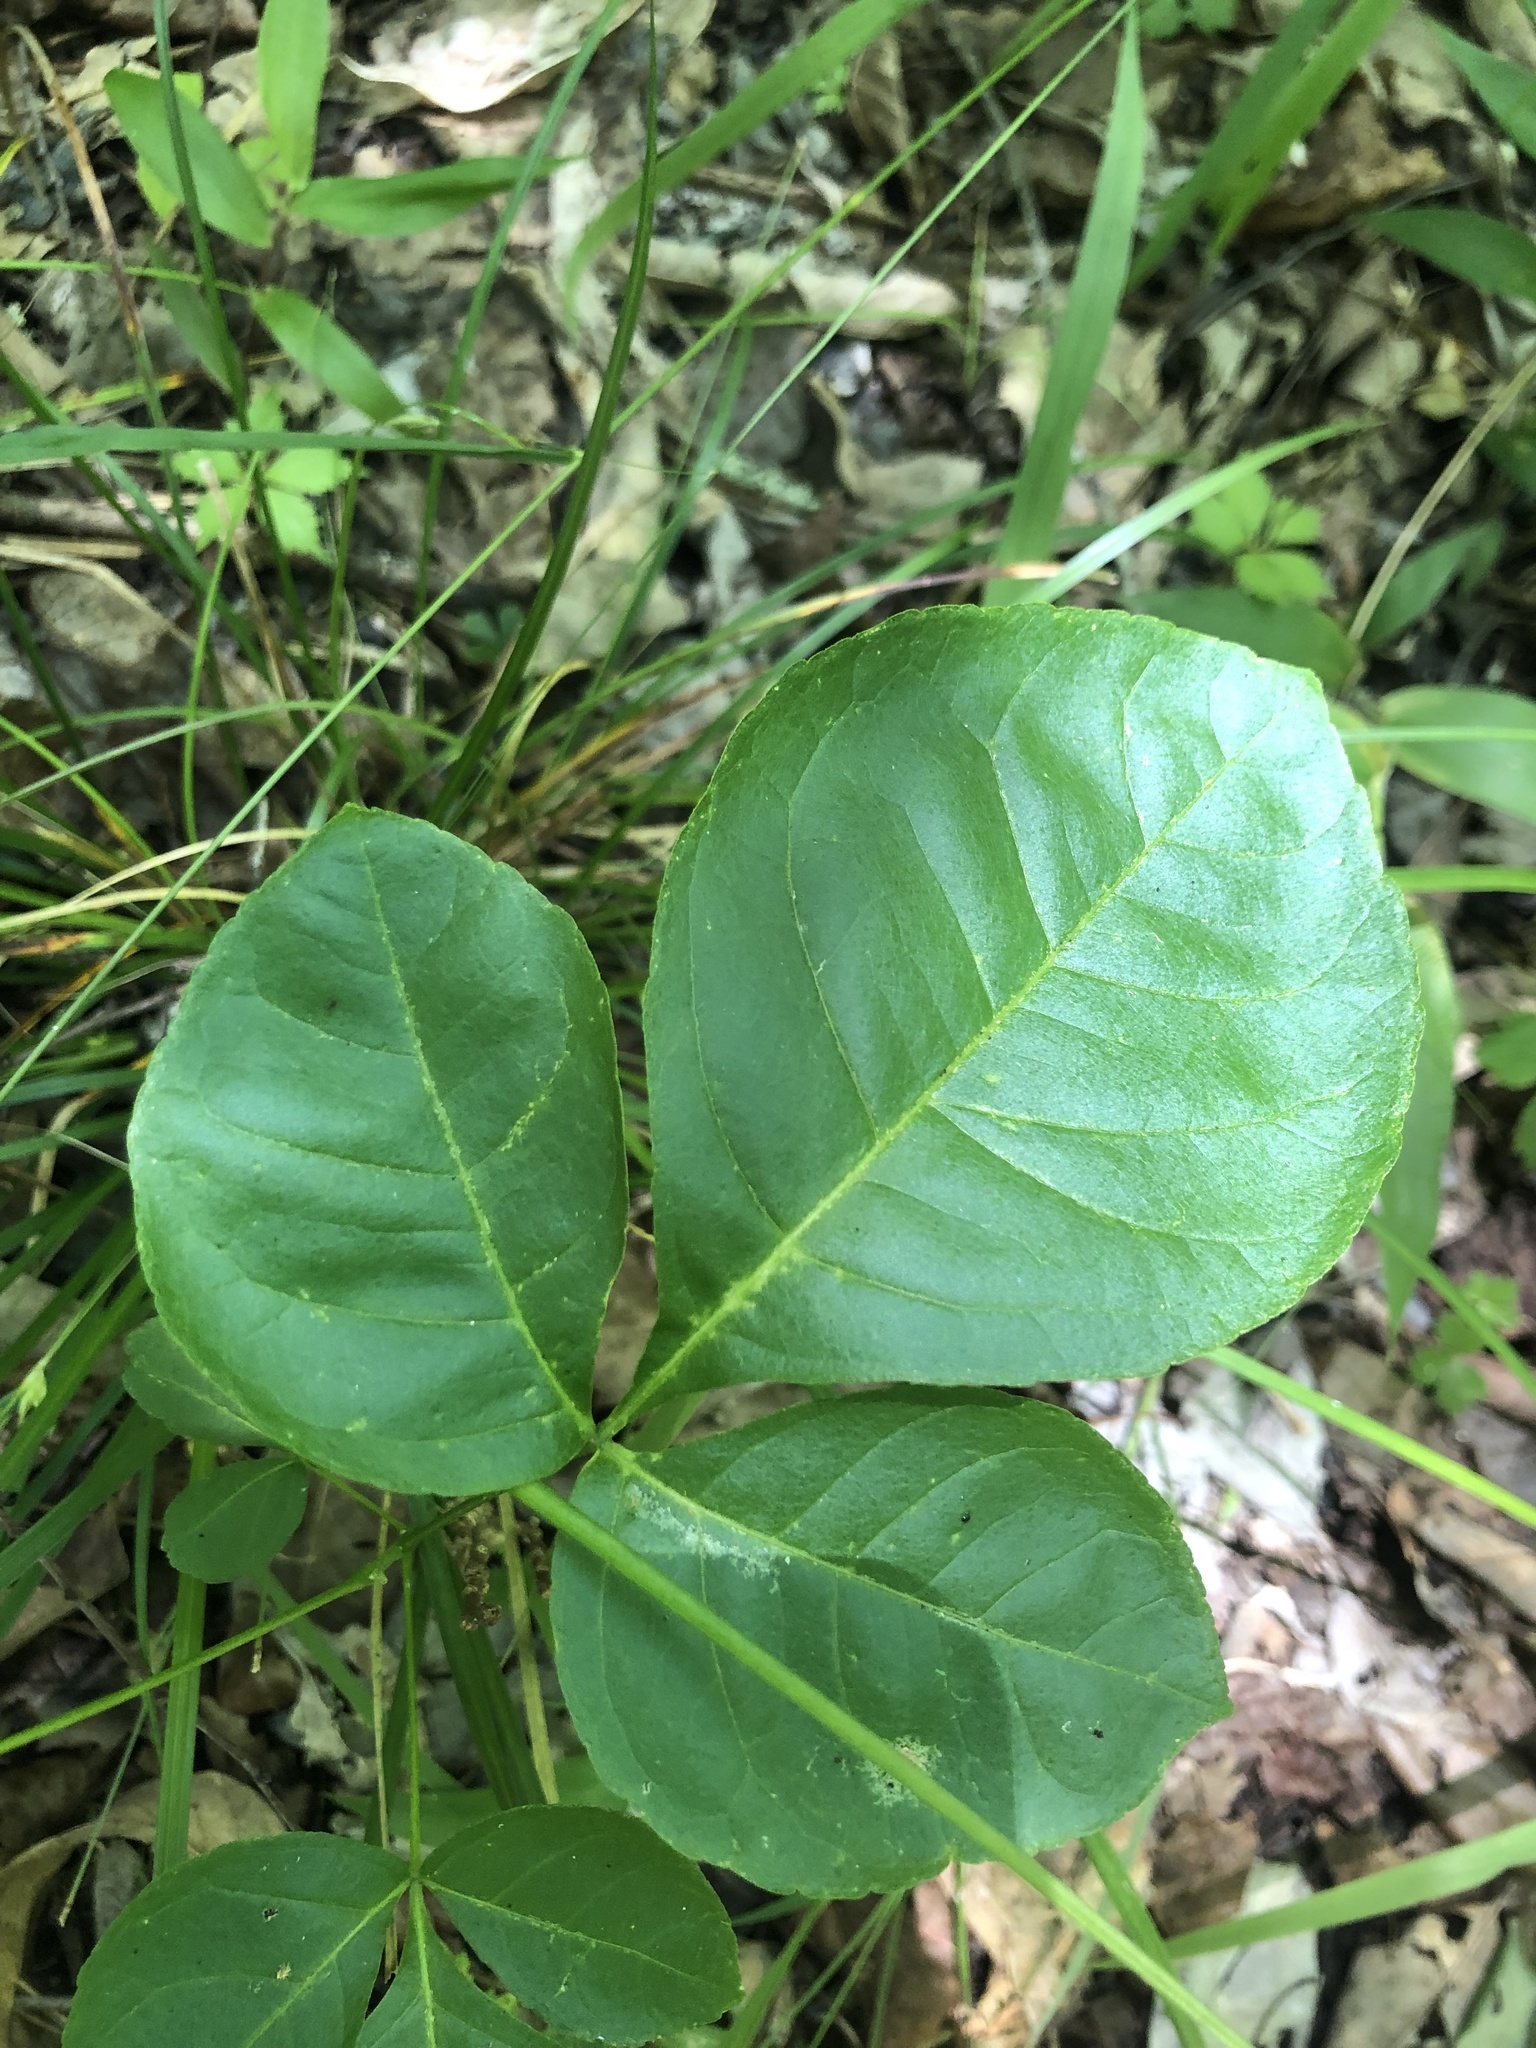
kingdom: Plantae
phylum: Tracheophyta
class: Magnoliopsida
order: Sapindales
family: Rutaceae
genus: Ptelea
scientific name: Ptelea trifoliata
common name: Common hop-tree
